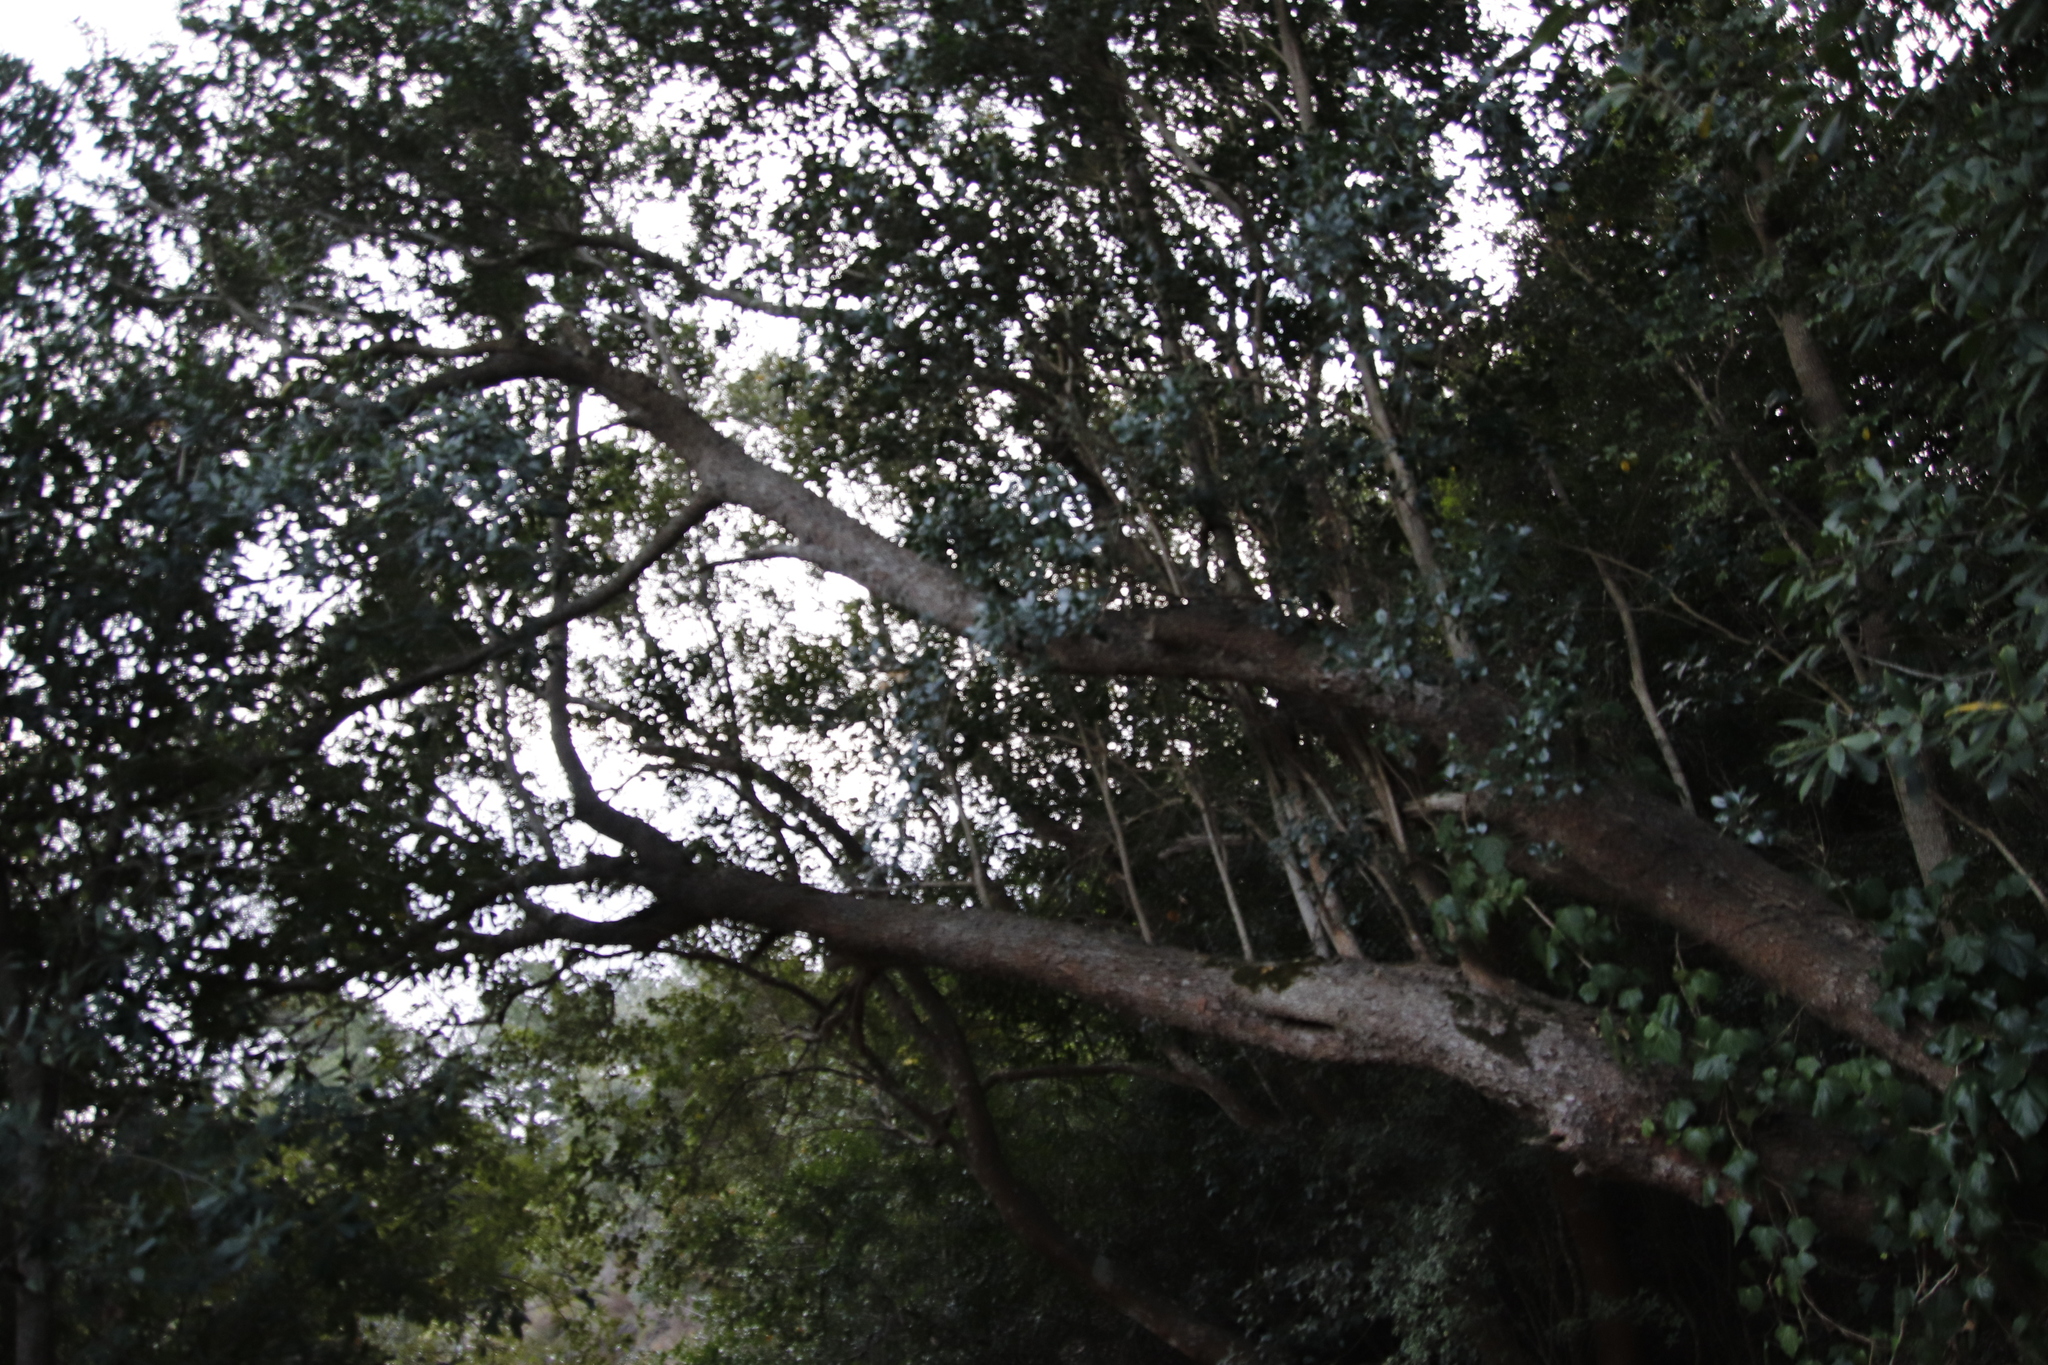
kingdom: Plantae
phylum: Tracheophyta
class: Magnoliopsida
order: Lamiales
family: Oleaceae
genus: Olea
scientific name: Olea capensis
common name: Black ironwood
